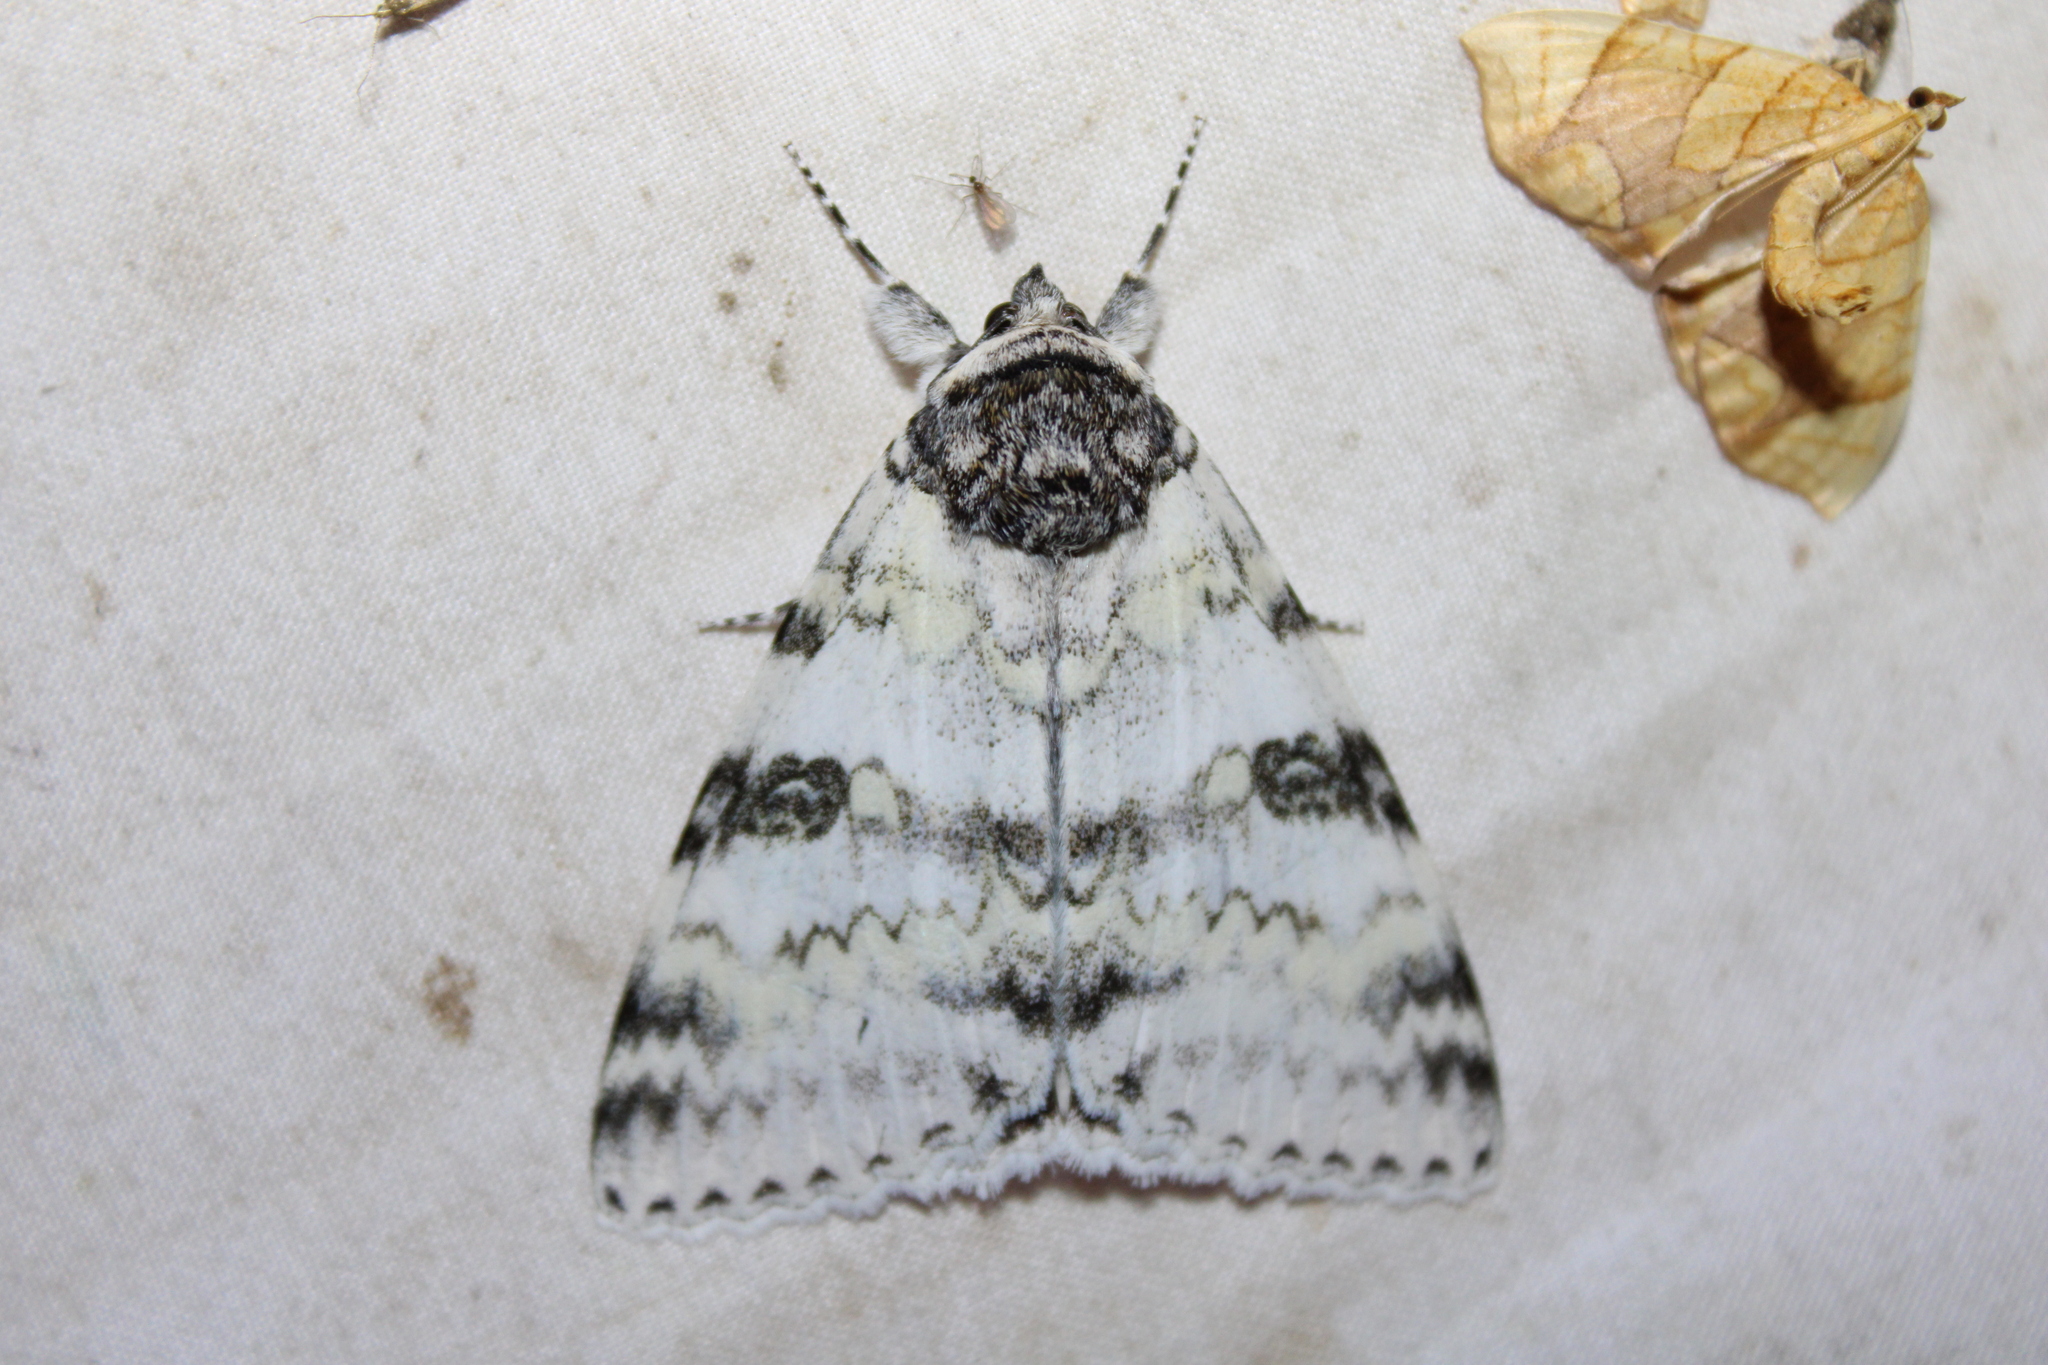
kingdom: Animalia
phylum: Arthropoda
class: Insecta
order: Lepidoptera
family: Erebidae
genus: Catocala
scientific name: Catocala relicta
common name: White underwing
